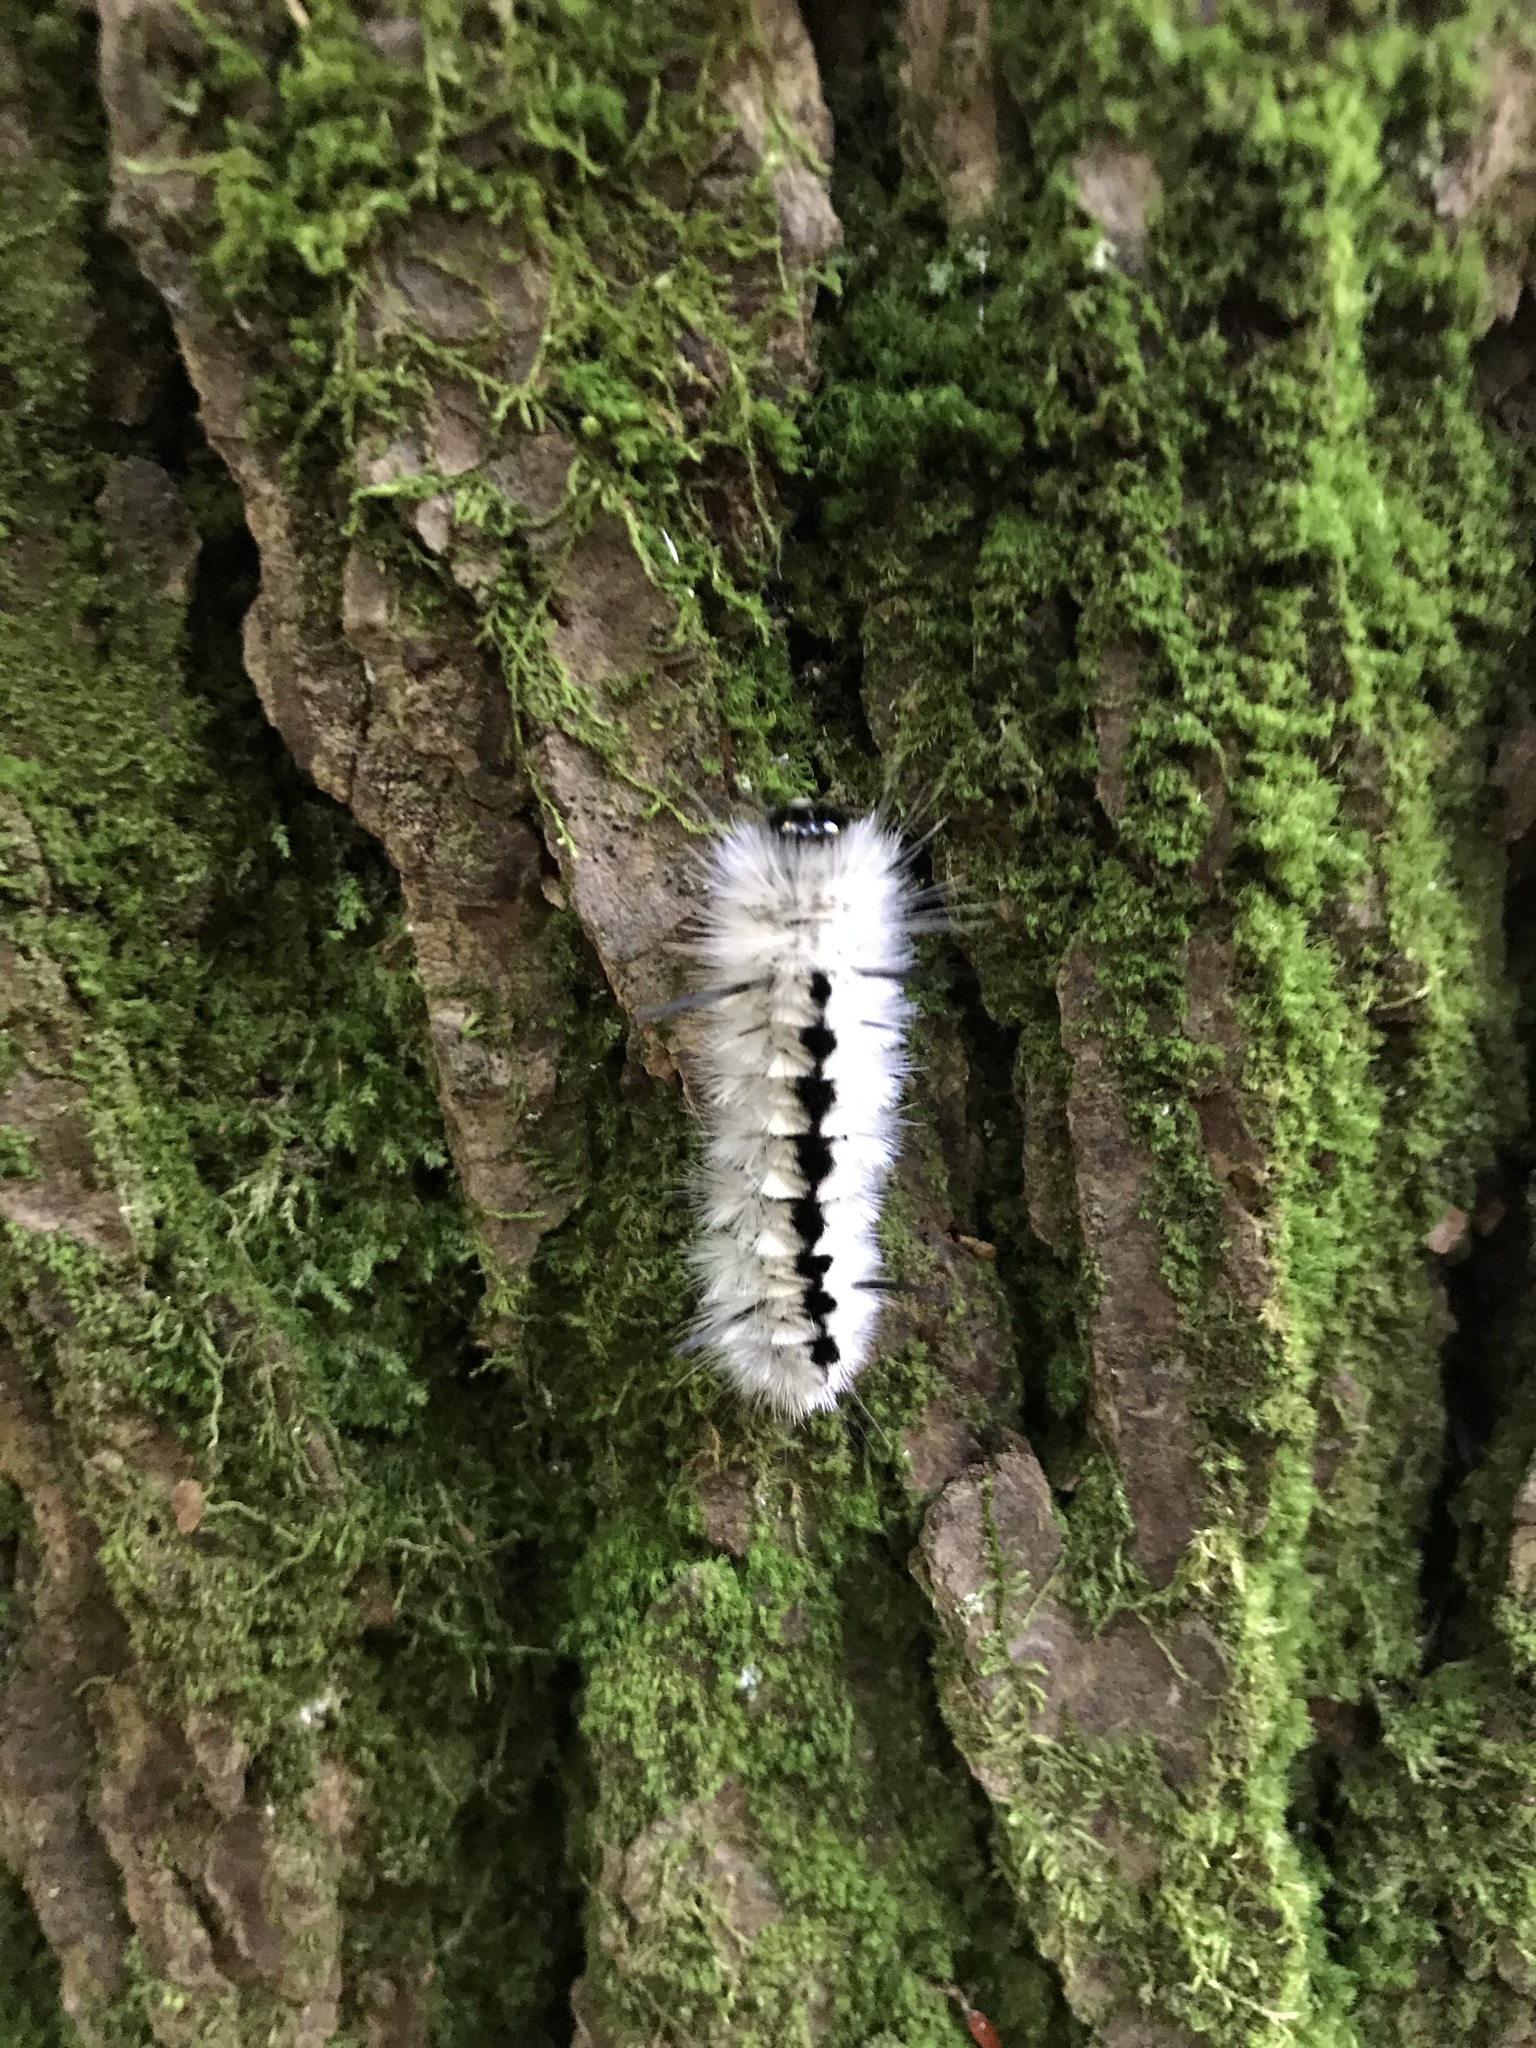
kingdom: Animalia
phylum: Arthropoda
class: Insecta
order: Lepidoptera
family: Erebidae
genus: Lophocampa
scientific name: Lophocampa caryae
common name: Hickory tussock moth
